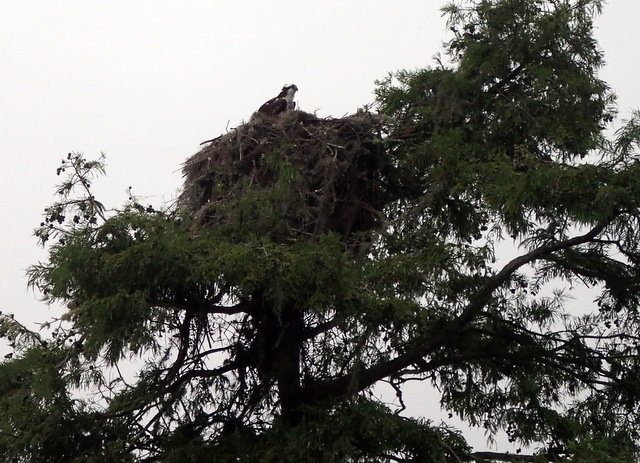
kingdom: Animalia
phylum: Chordata
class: Aves
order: Accipitriformes
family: Pandionidae
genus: Pandion
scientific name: Pandion haliaetus
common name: Osprey
